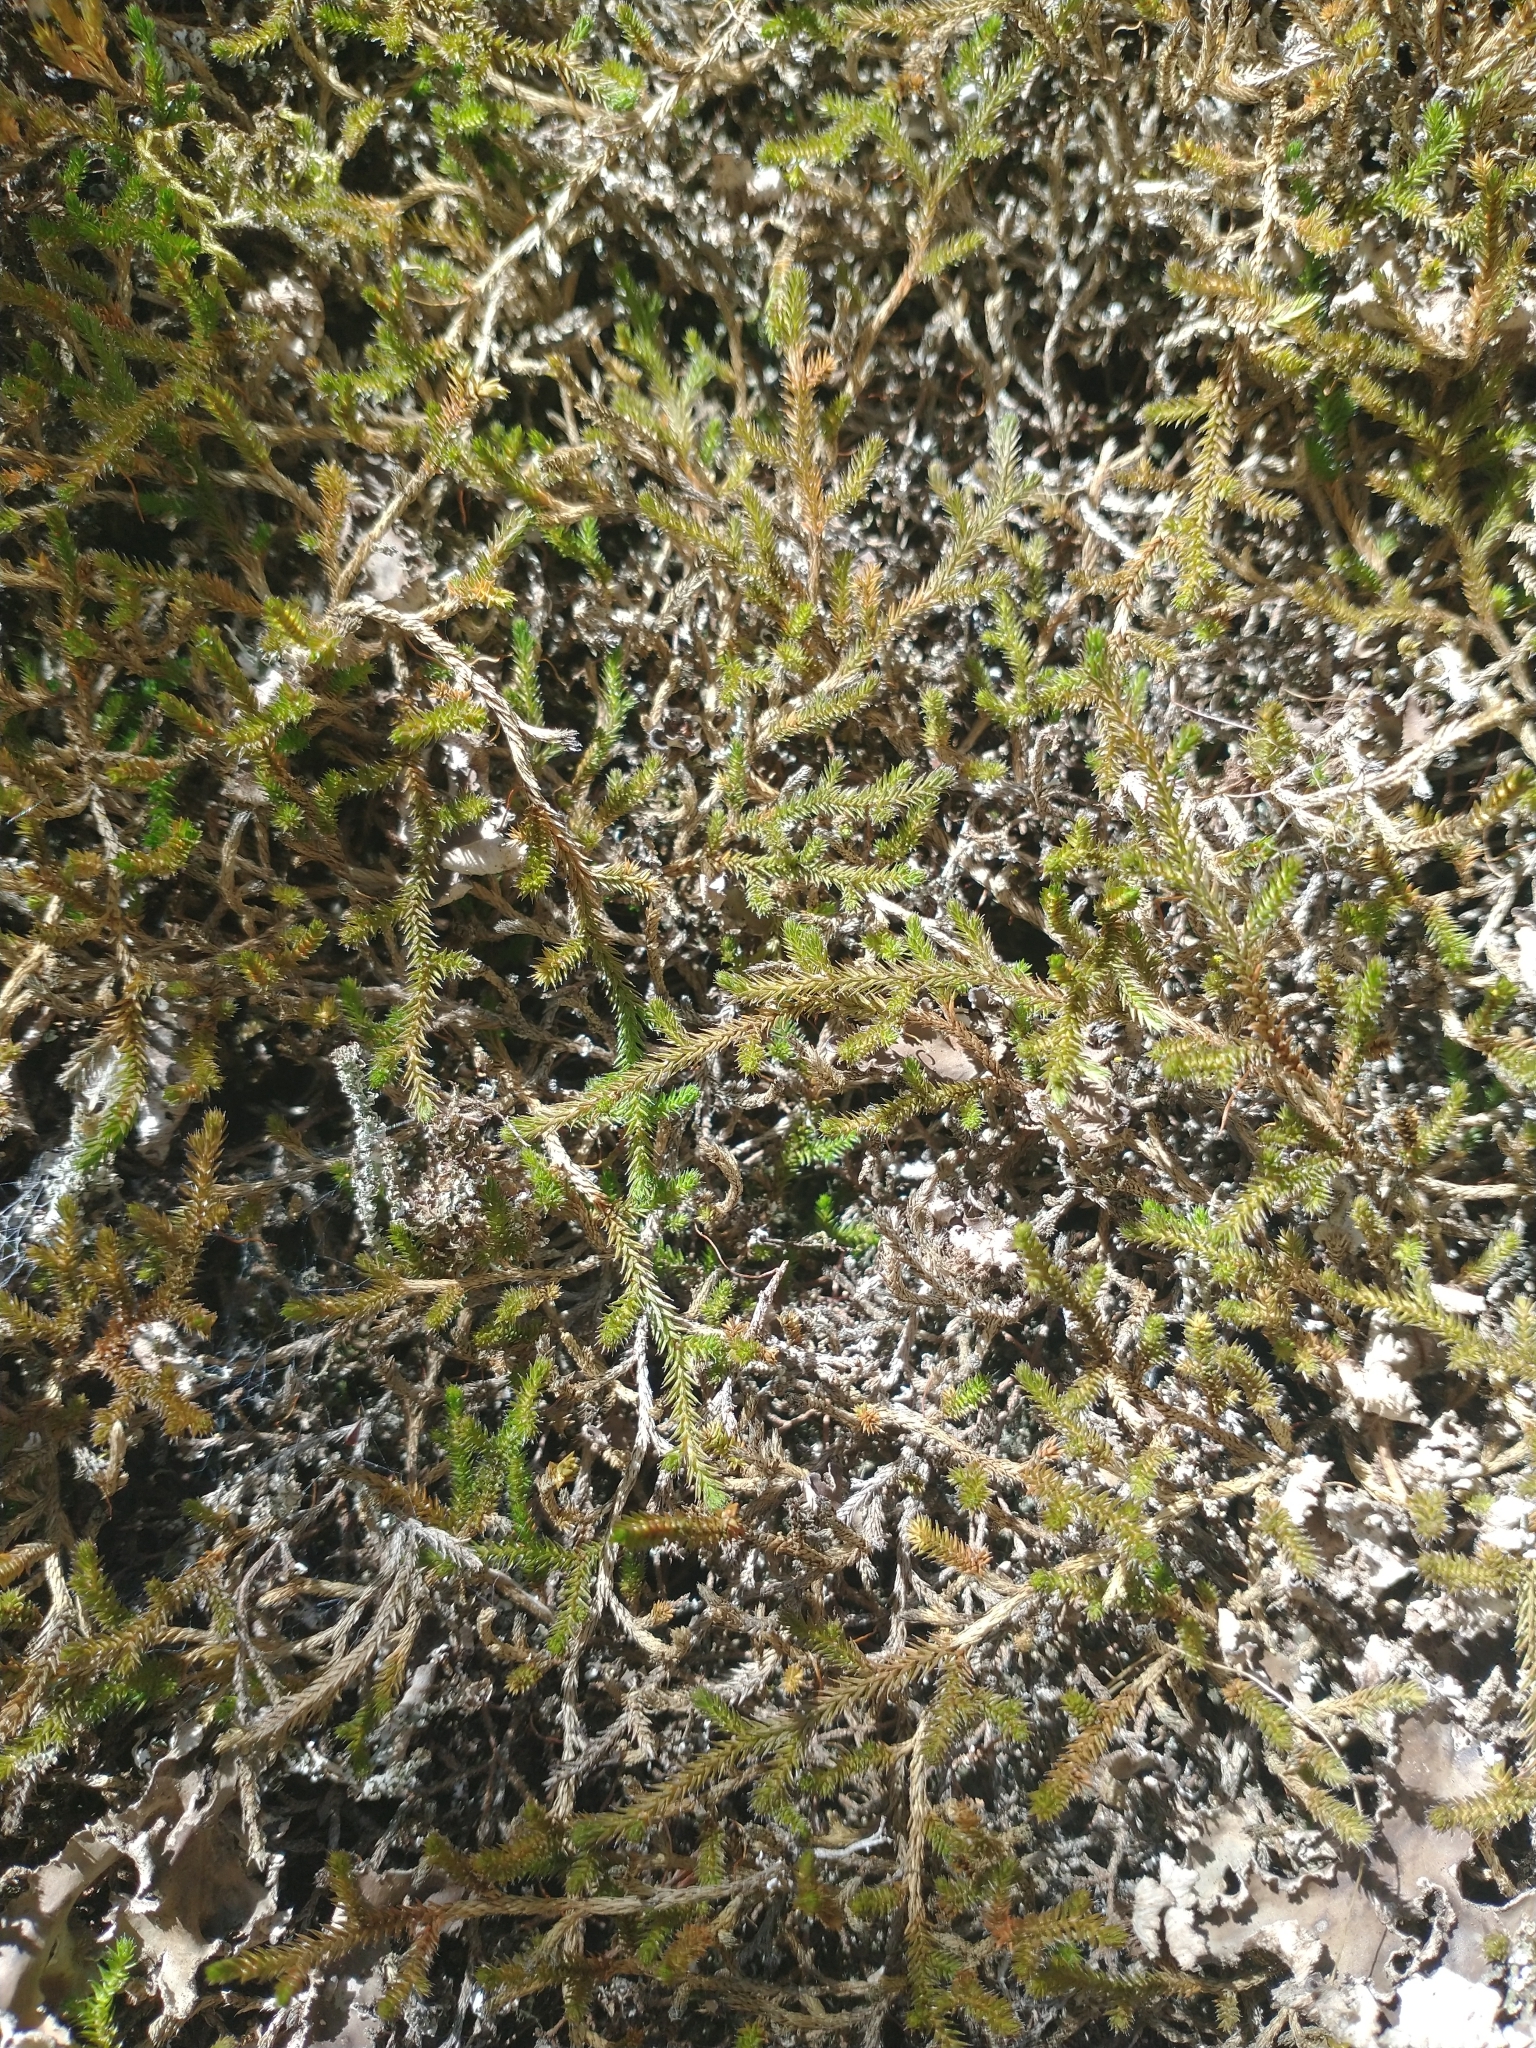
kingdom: Plantae
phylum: Tracheophyta
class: Lycopodiopsida
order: Selaginellales
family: Selaginellaceae
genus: Selaginella
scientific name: Selaginella wallacei
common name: Wallace's selaginella
